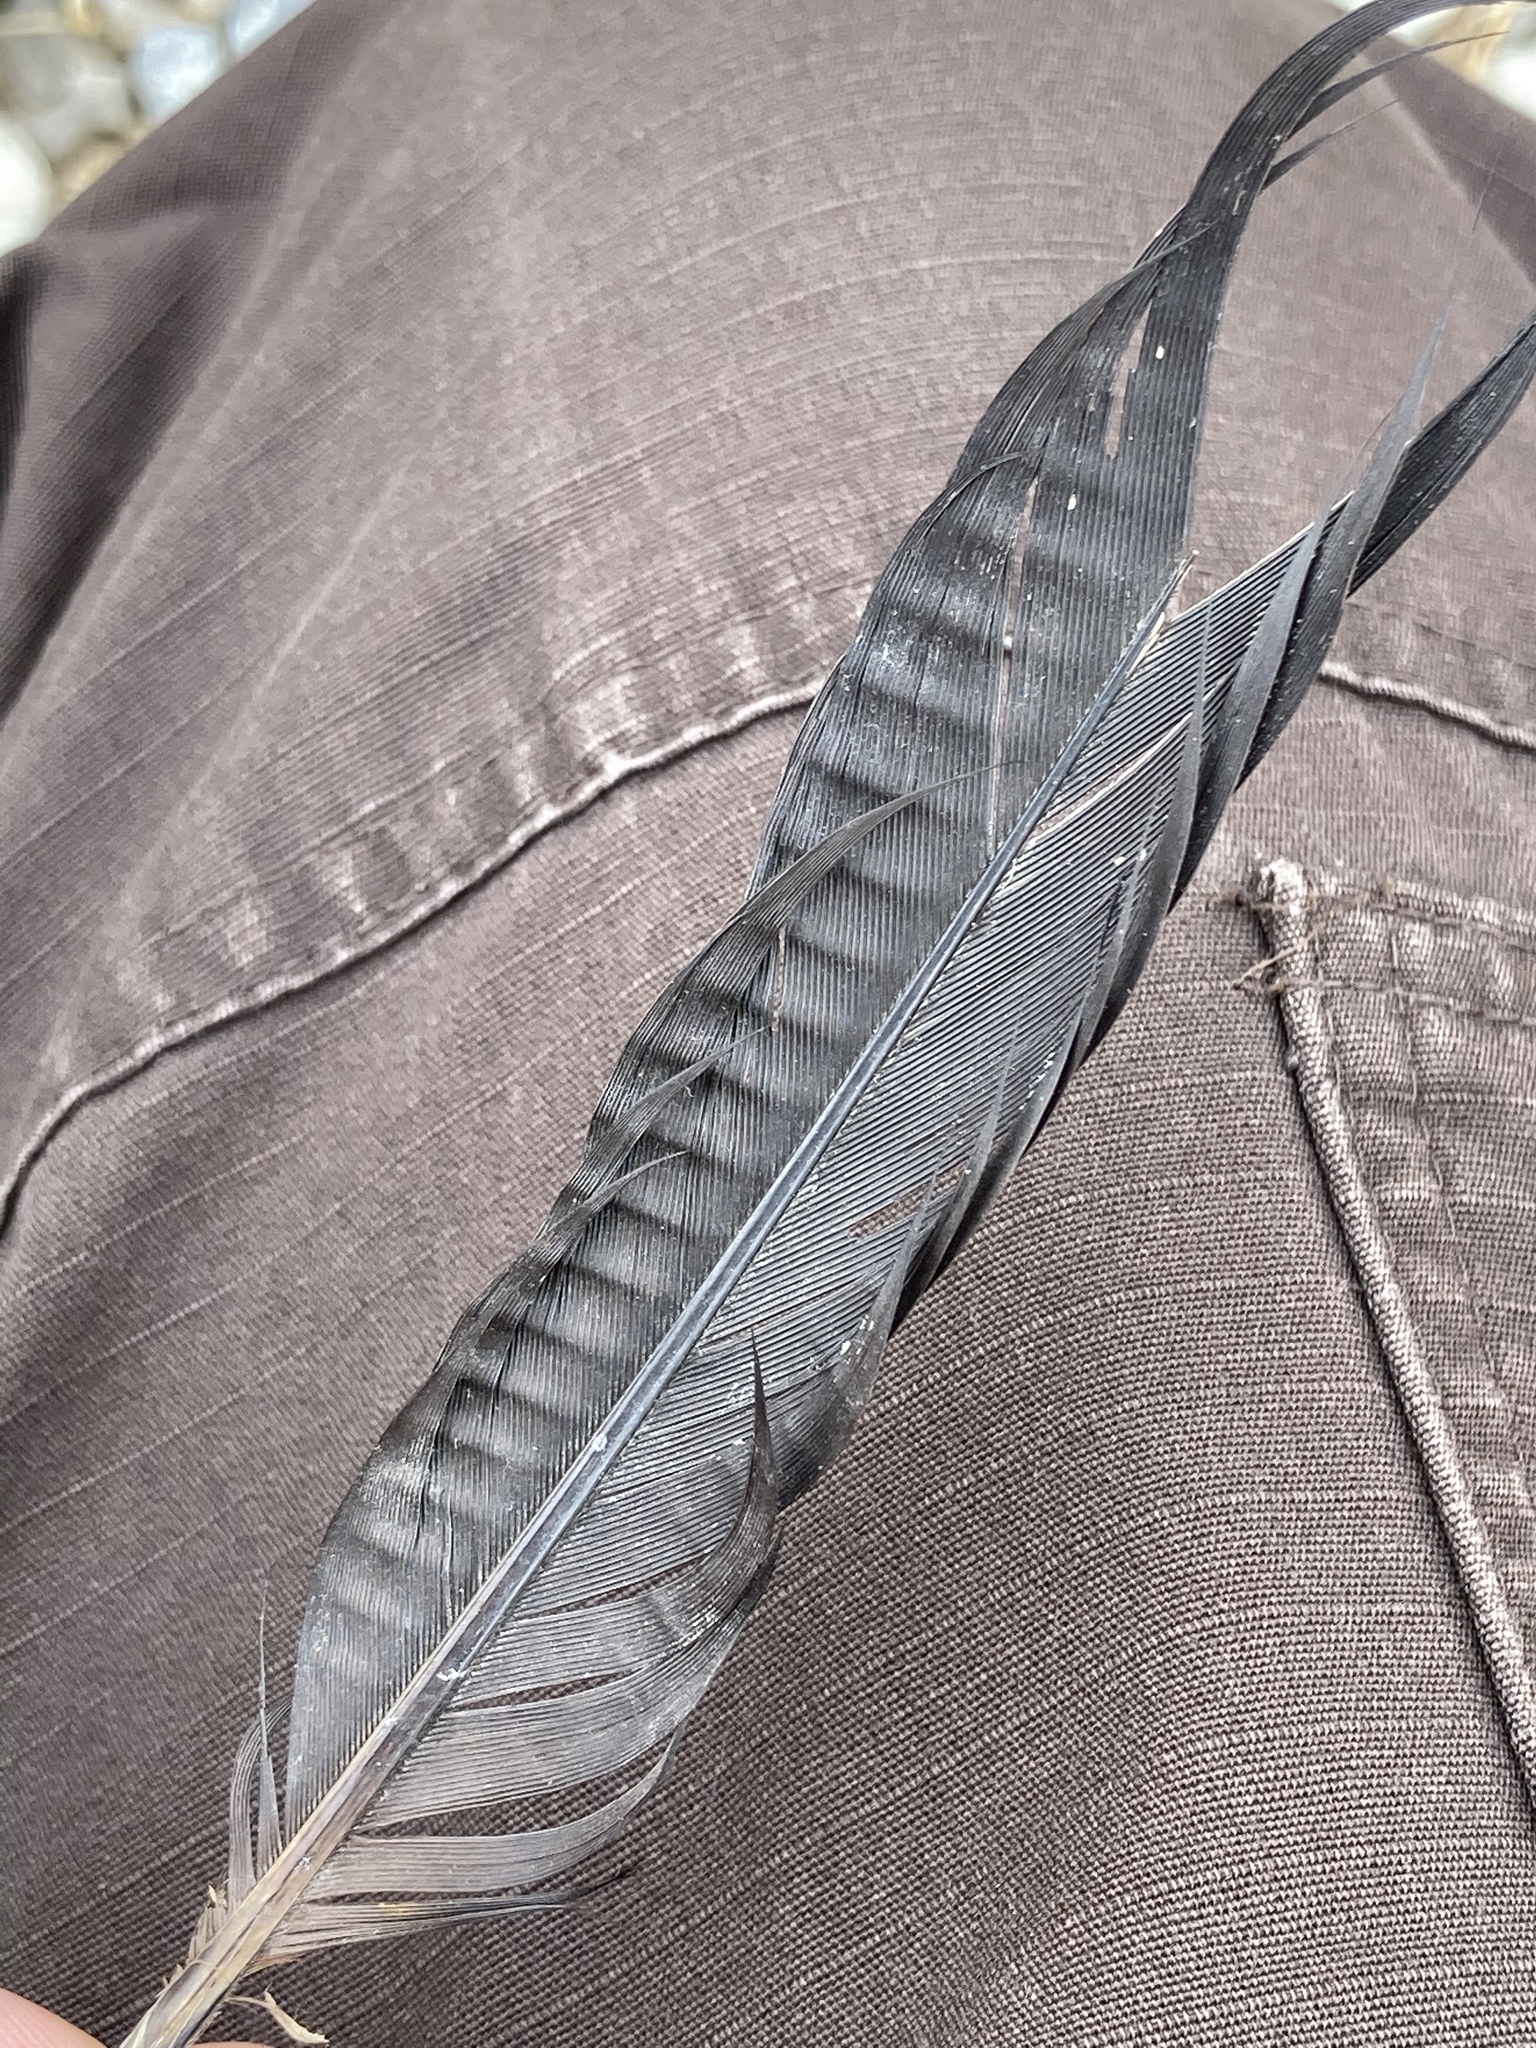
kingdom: Animalia
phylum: Chordata
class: Aves
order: Suliformes
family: Anhingidae
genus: Anhinga
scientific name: Anhinga anhinga
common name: Anhinga
